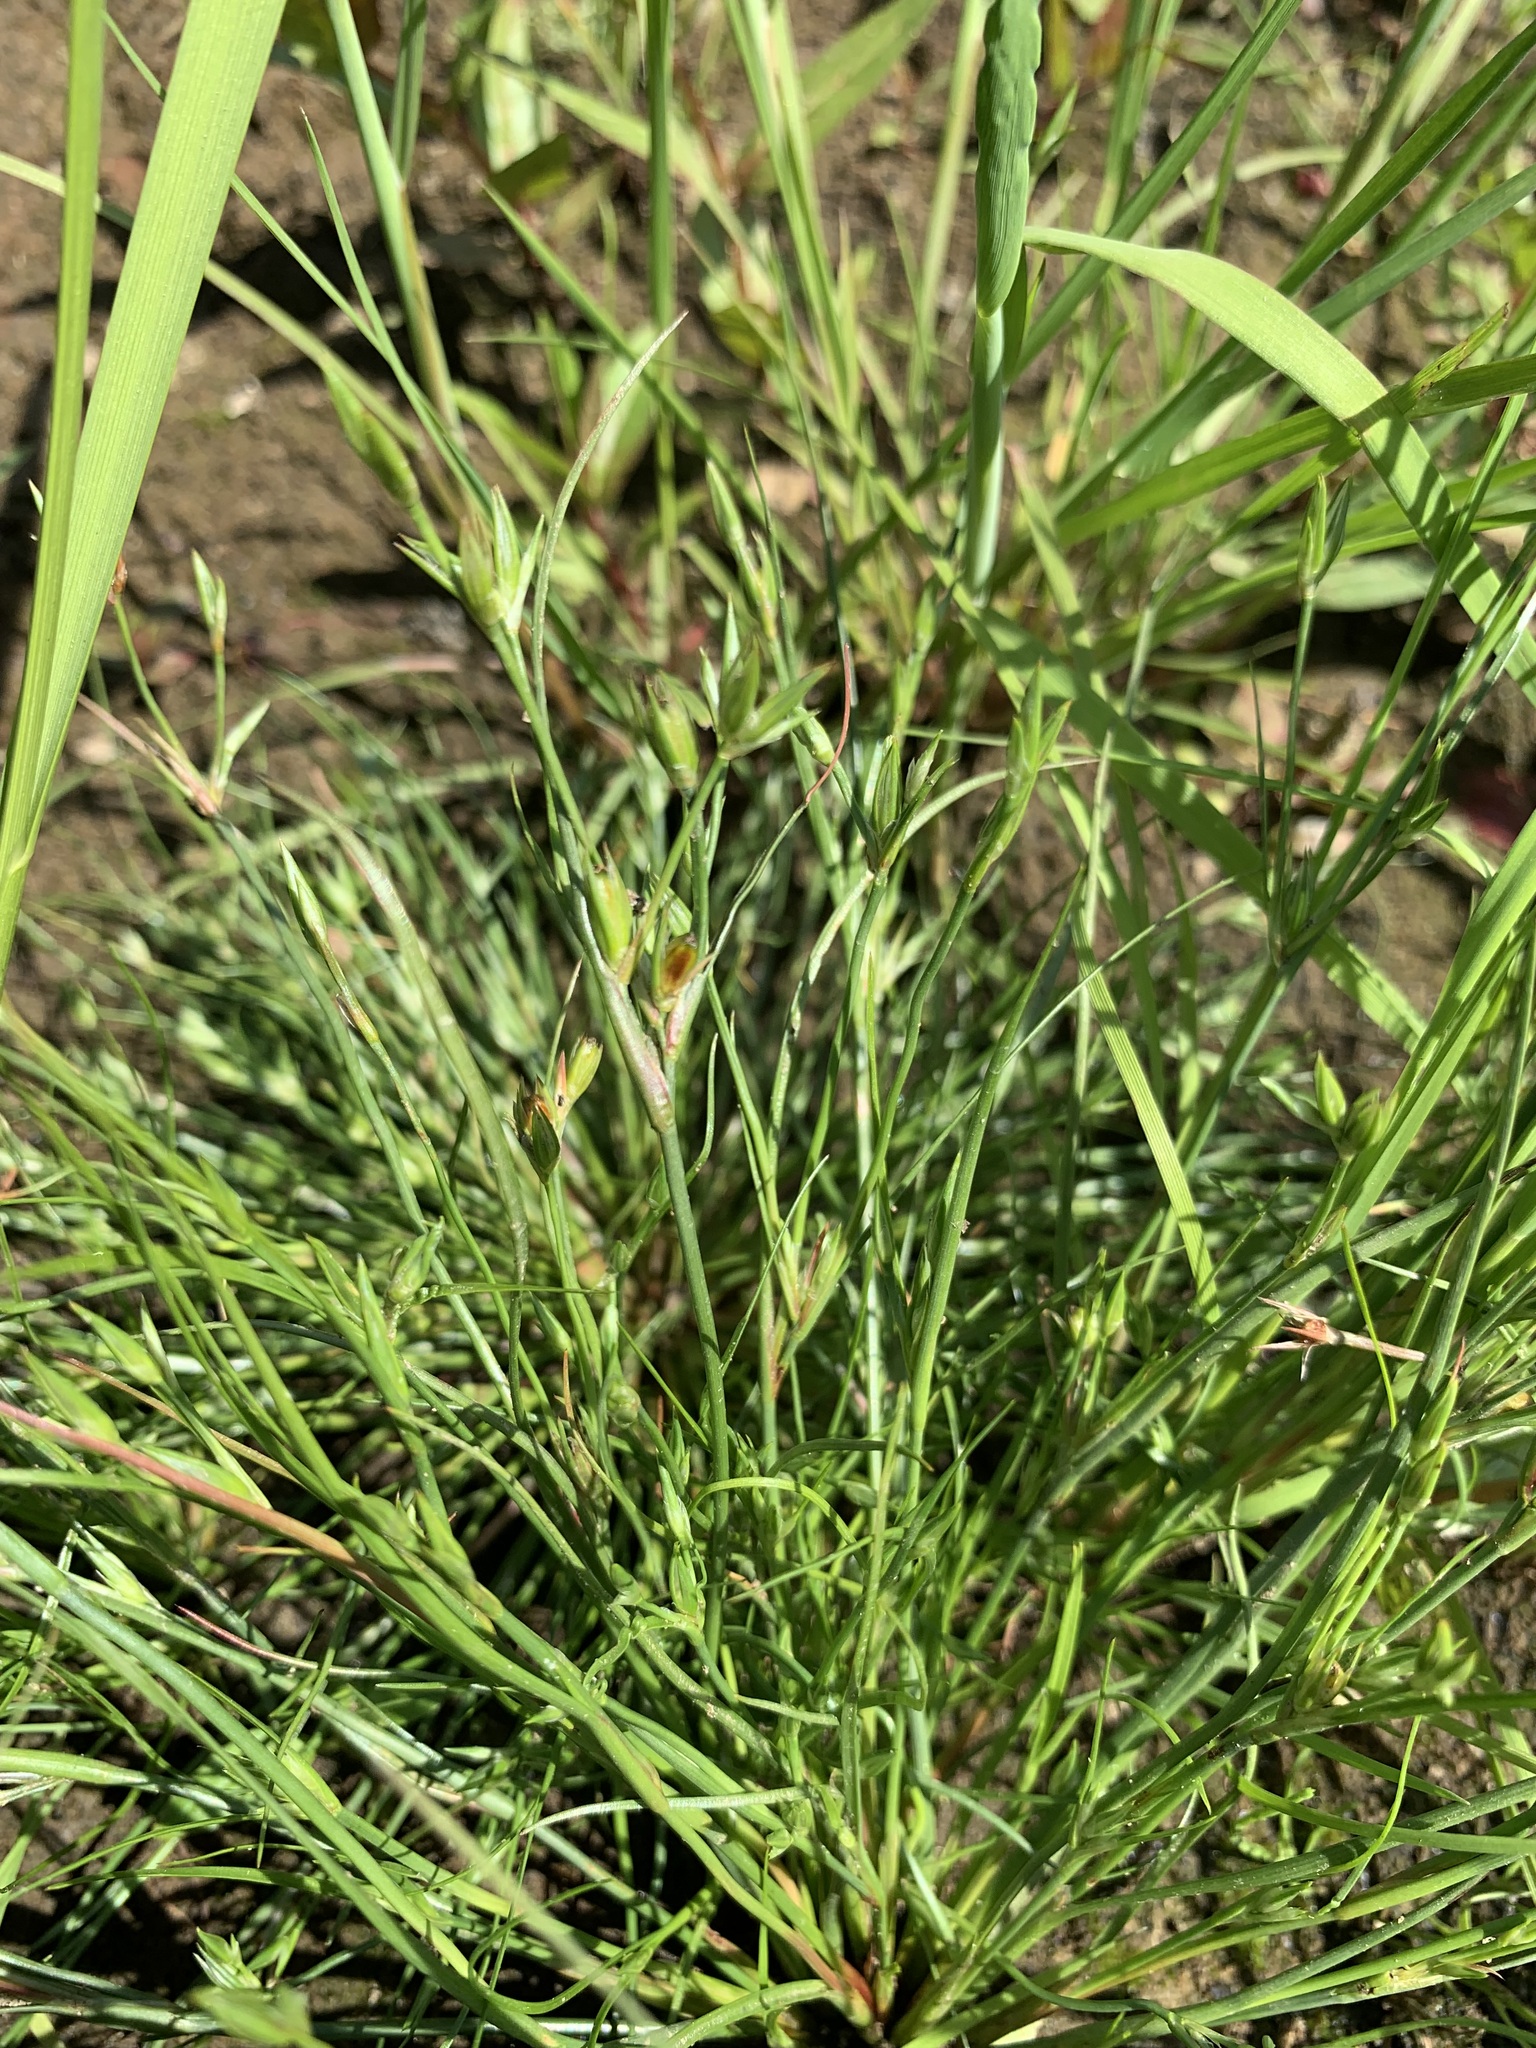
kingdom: Plantae
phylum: Tracheophyta
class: Liliopsida
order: Poales
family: Juncaceae
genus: Juncus
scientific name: Juncus bufonius
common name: Toad rush
